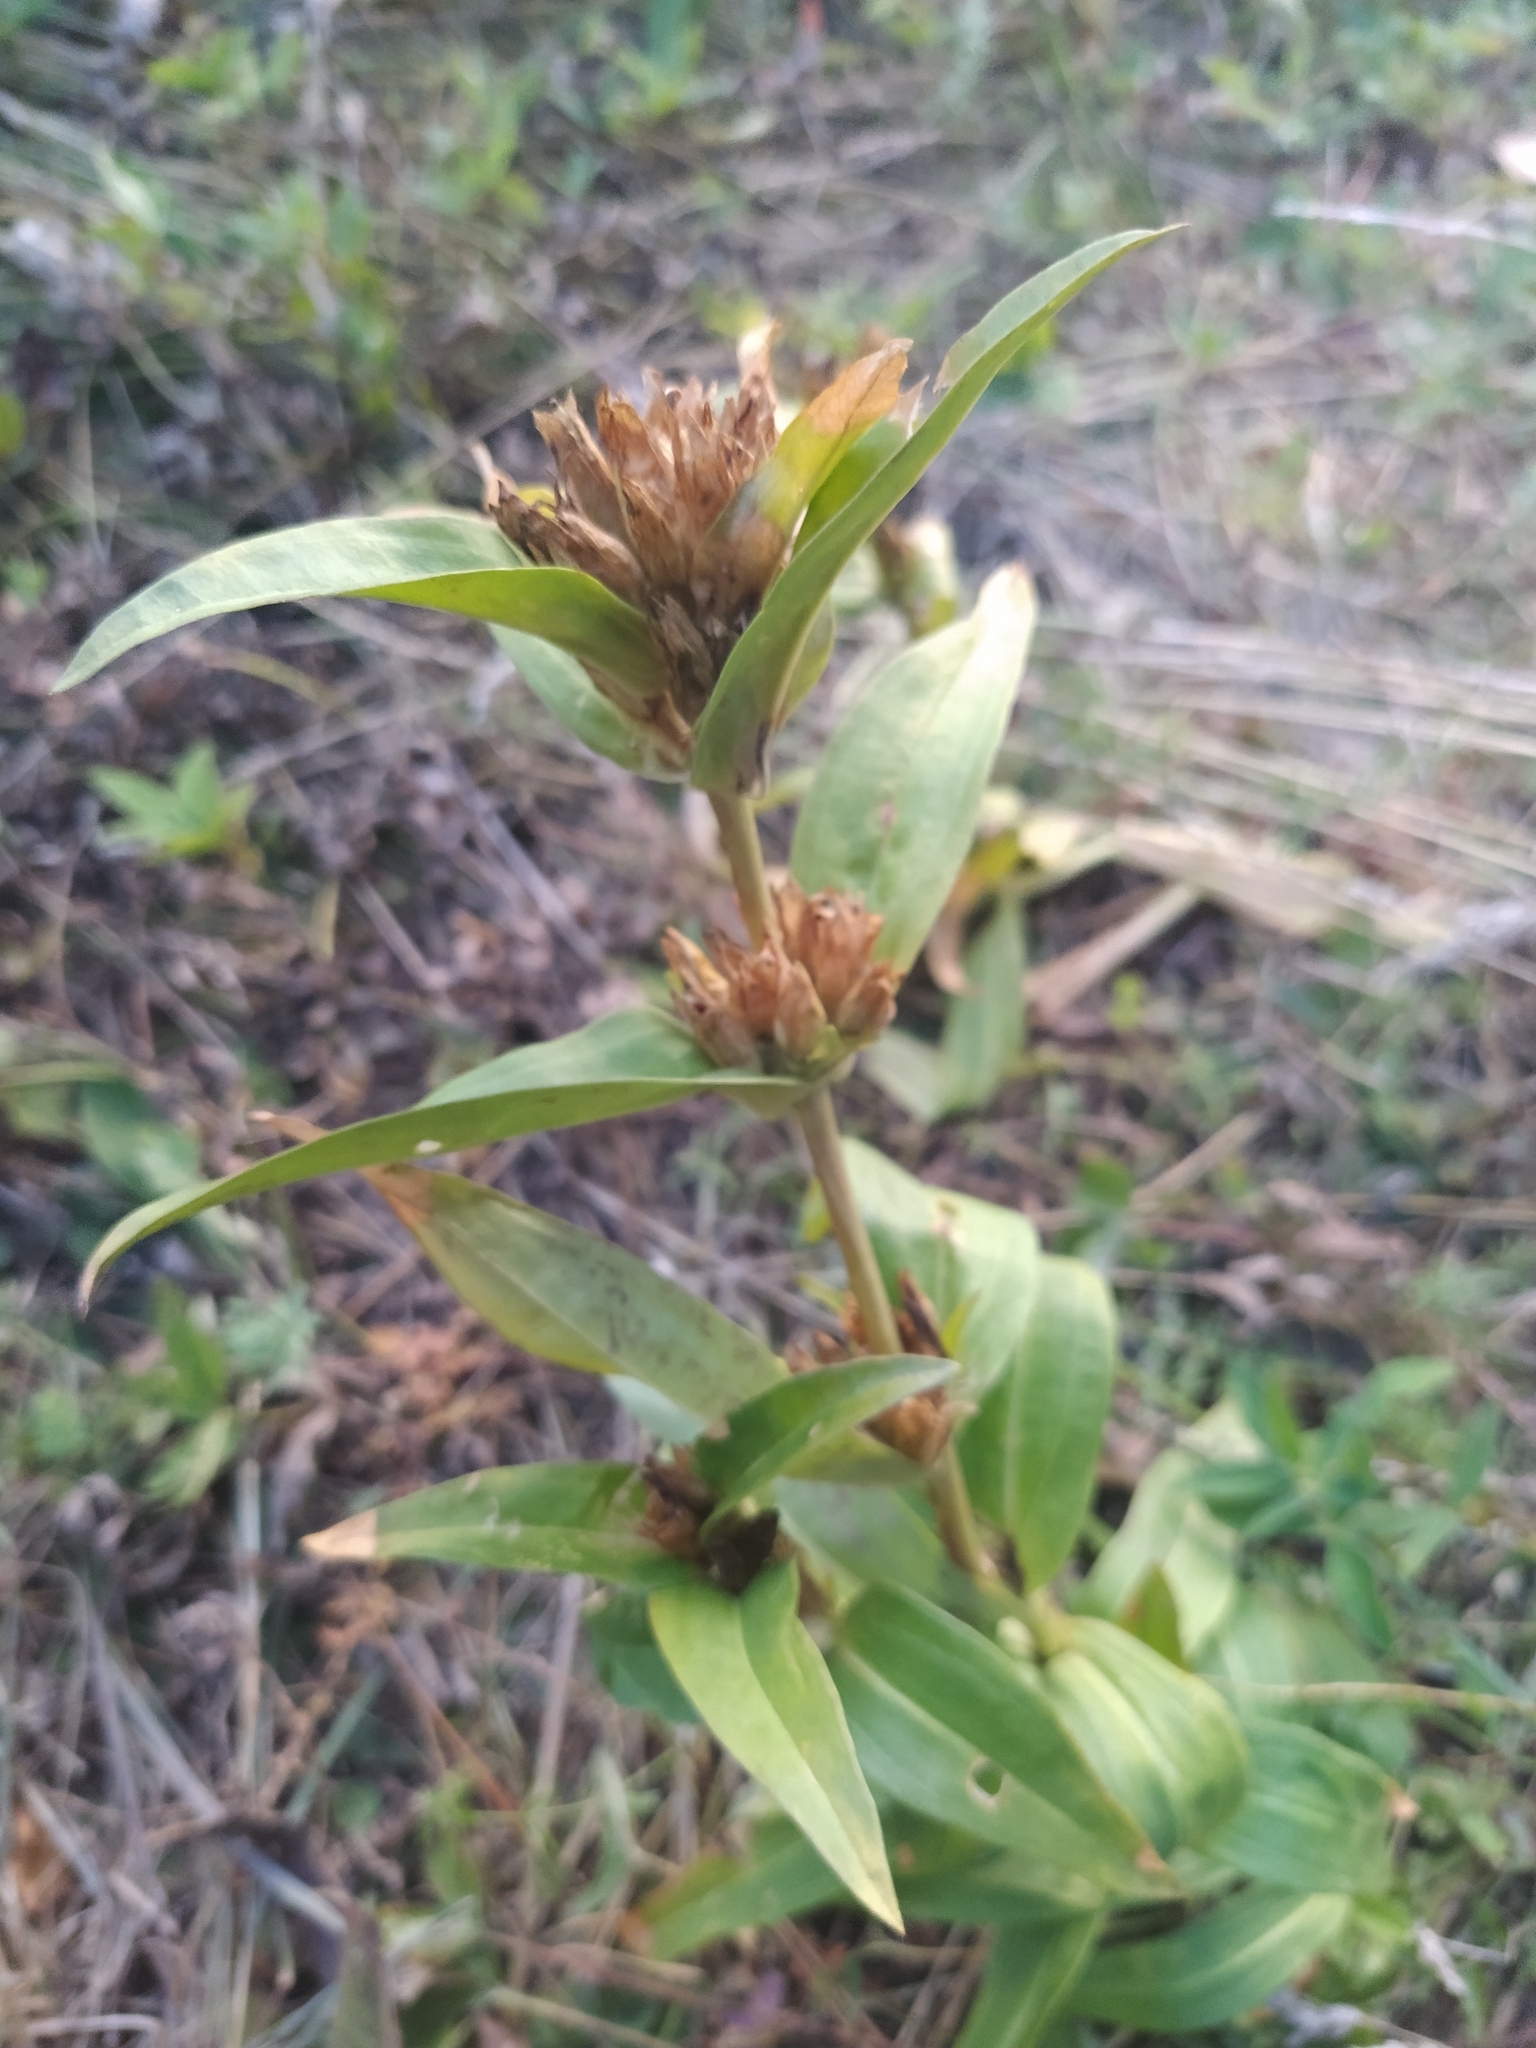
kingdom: Plantae
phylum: Tracheophyta
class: Magnoliopsida
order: Gentianales
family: Gentianaceae
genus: Gentiana
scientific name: Gentiana cruciata
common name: Cross gentian
